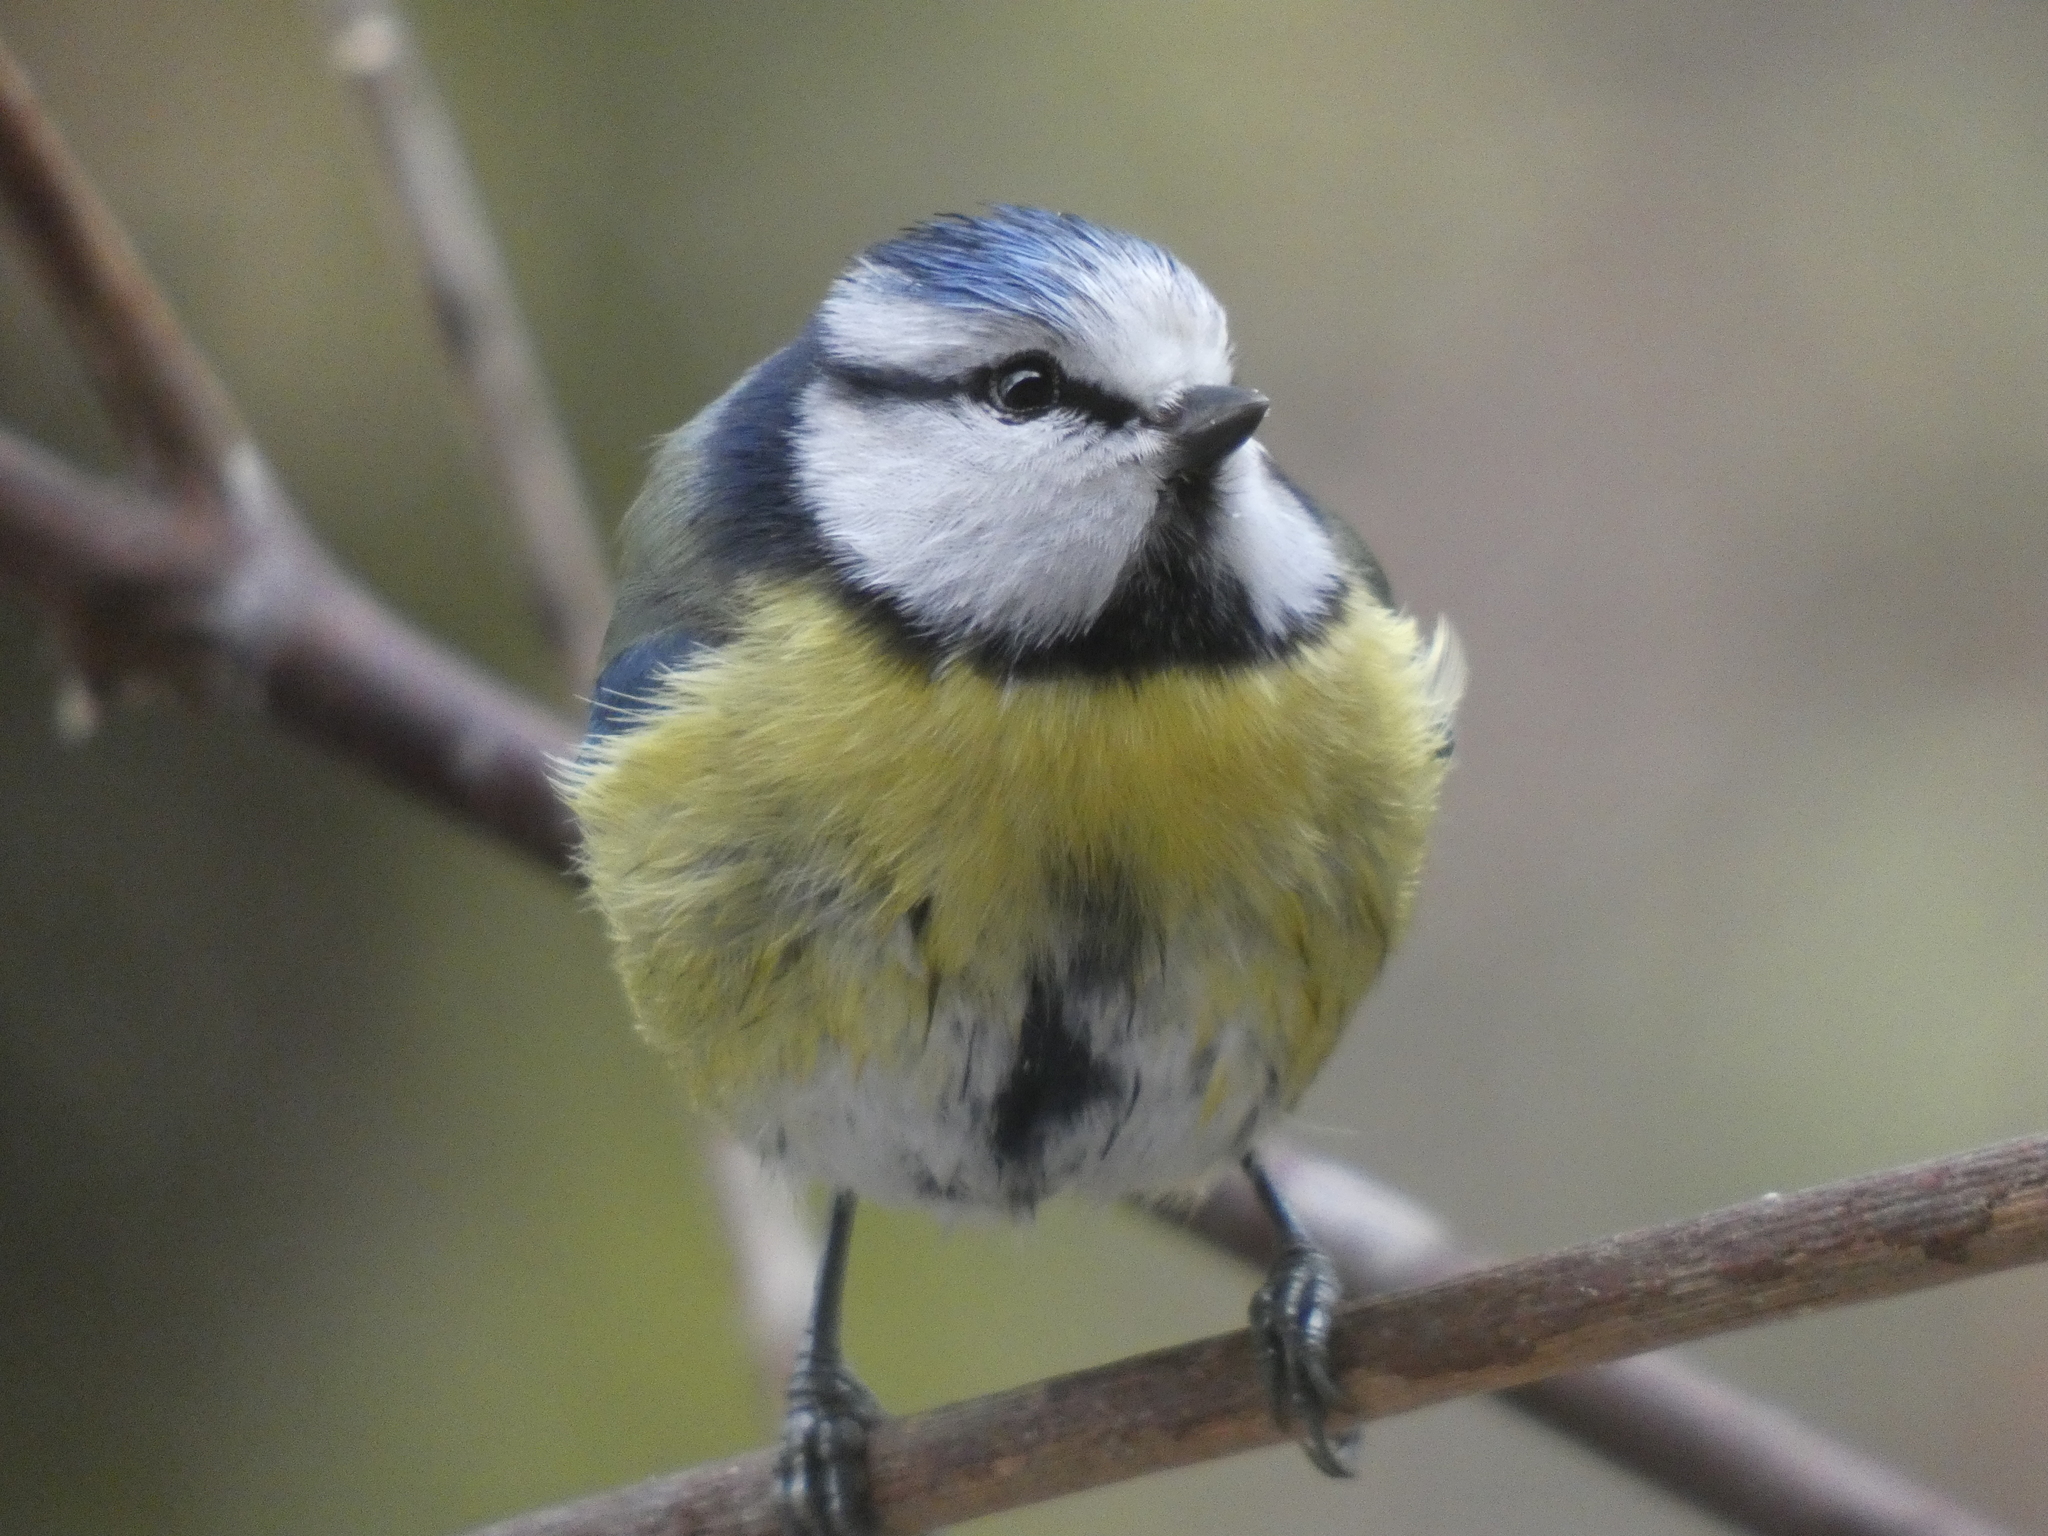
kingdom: Animalia
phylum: Chordata
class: Aves
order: Passeriformes
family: Paridae
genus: Cyanistes
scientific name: Cyanistes caeruleus
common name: Eurasian blue tit
